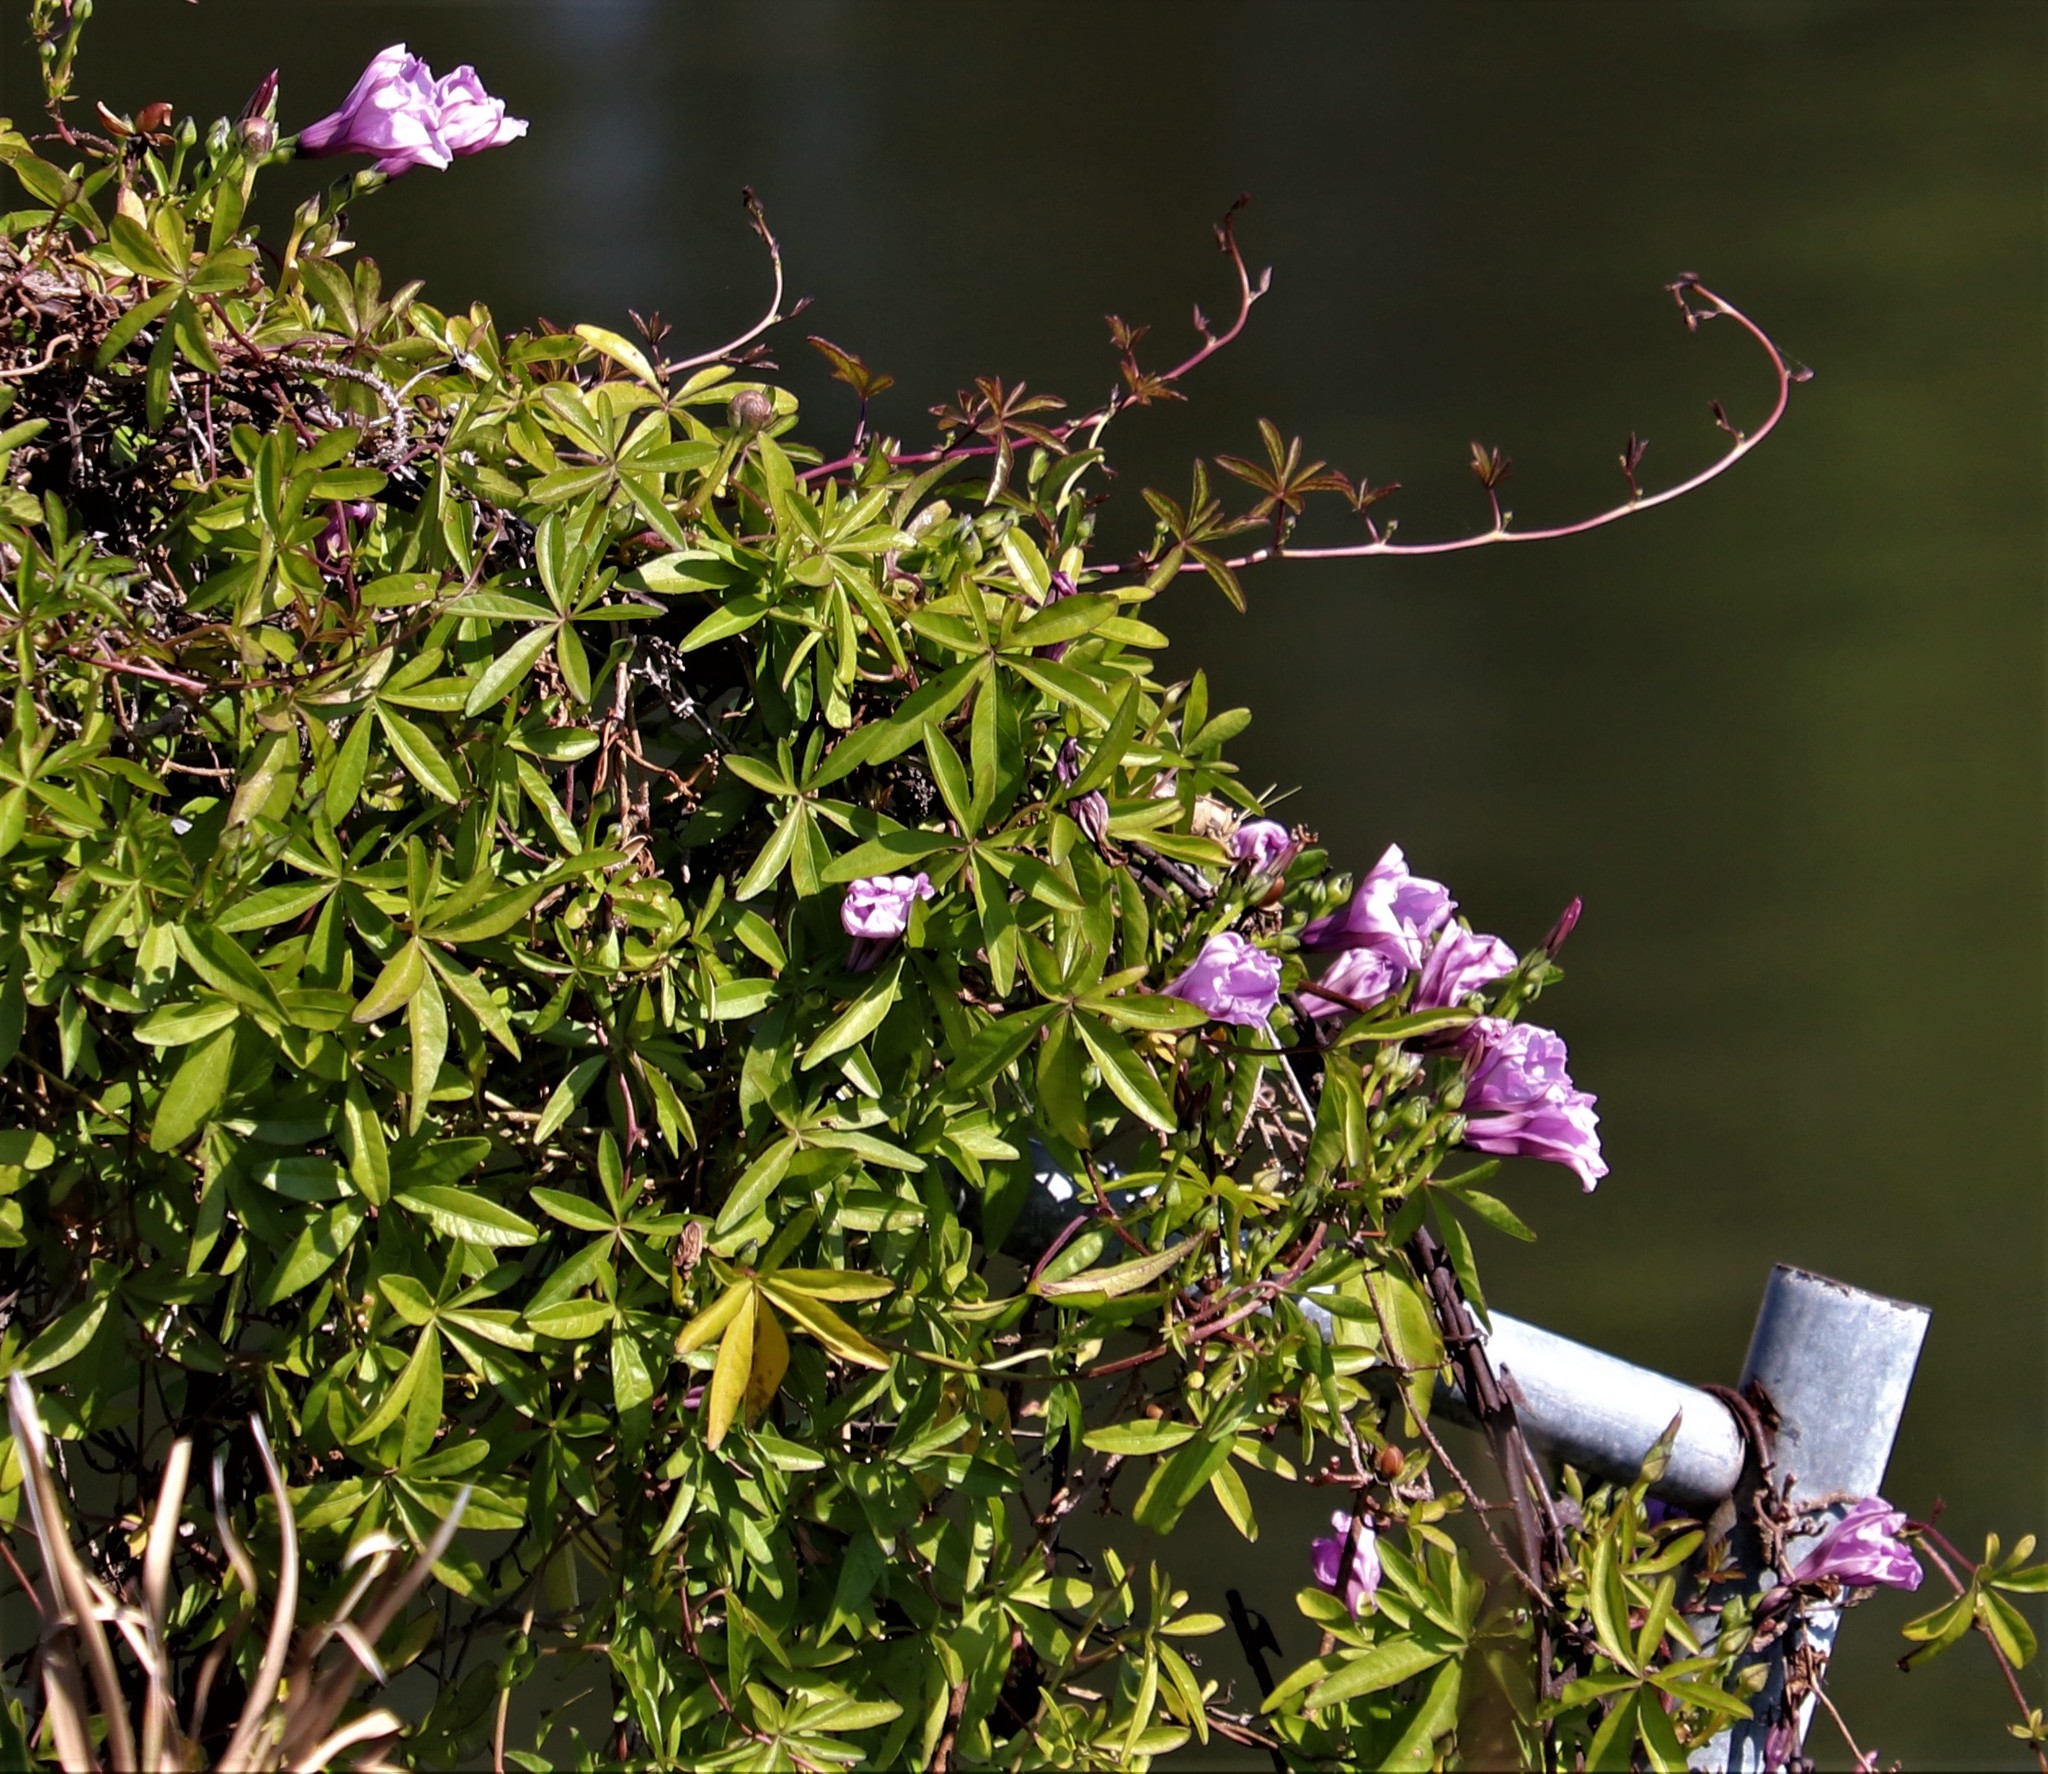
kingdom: Plantae
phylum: Tracheophyta
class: Magnoliopsida
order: Solanales
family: Convolvulaceae
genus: Ipomoea
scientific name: Ipomoea cairica
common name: Mile a minute vine
